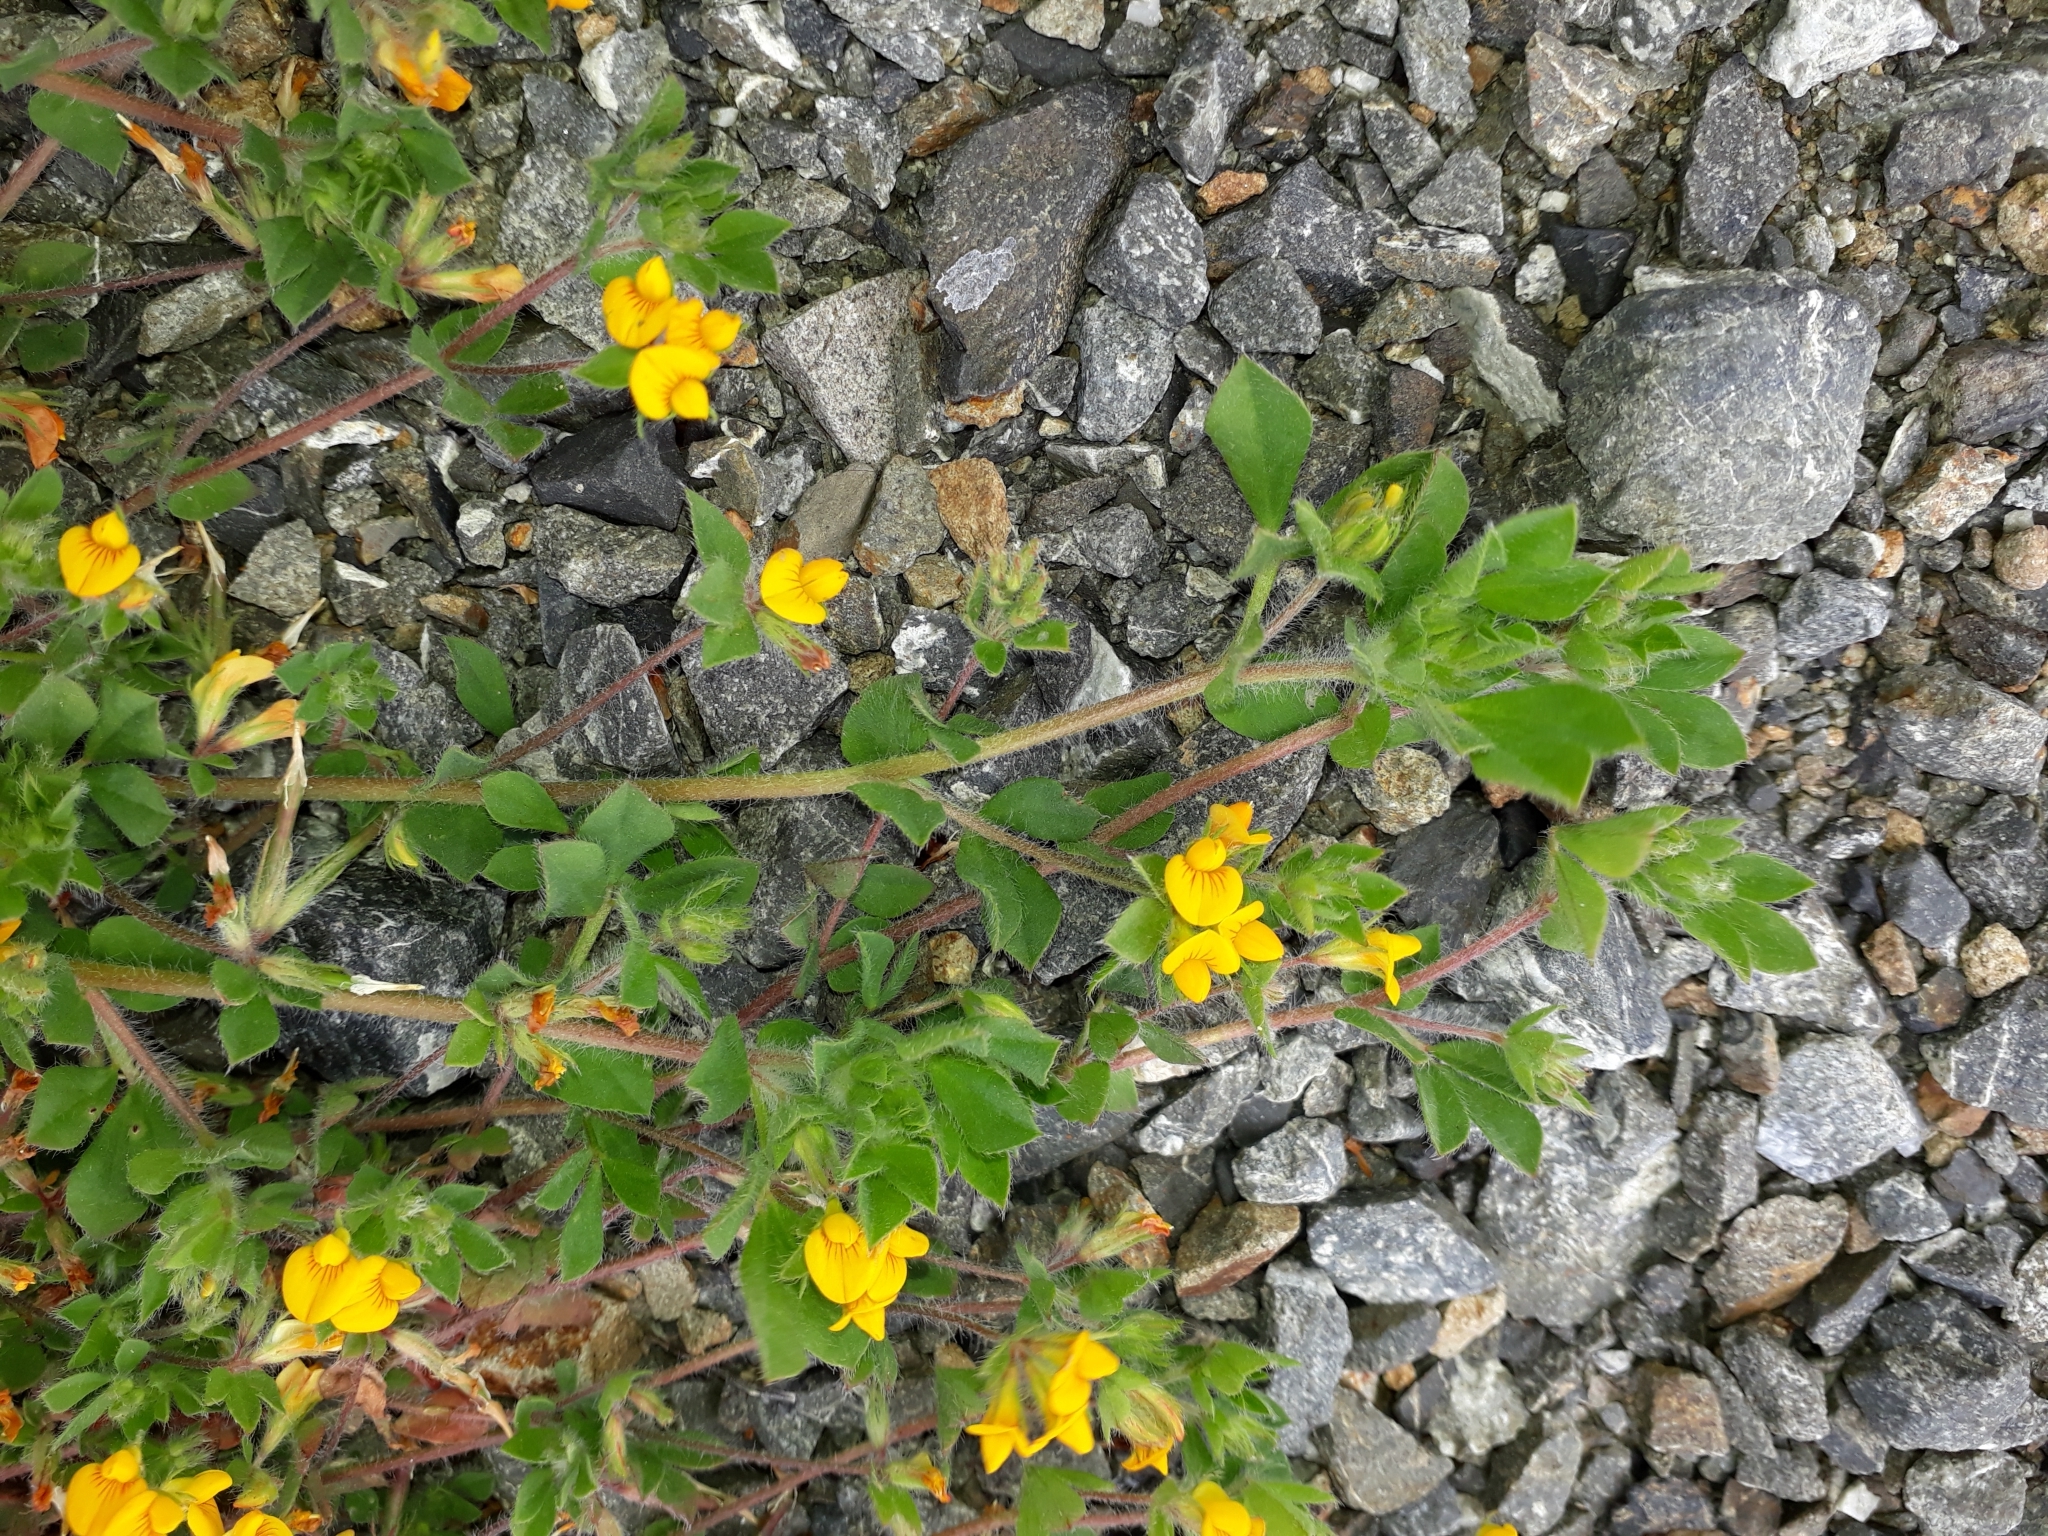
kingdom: Plantae
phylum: Tracheophyta
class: Magnoliopsida
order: Fabales
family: Fabaceae
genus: Lotus
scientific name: Lotus subbiflorus
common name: Hairy bird's-foot trefoil
